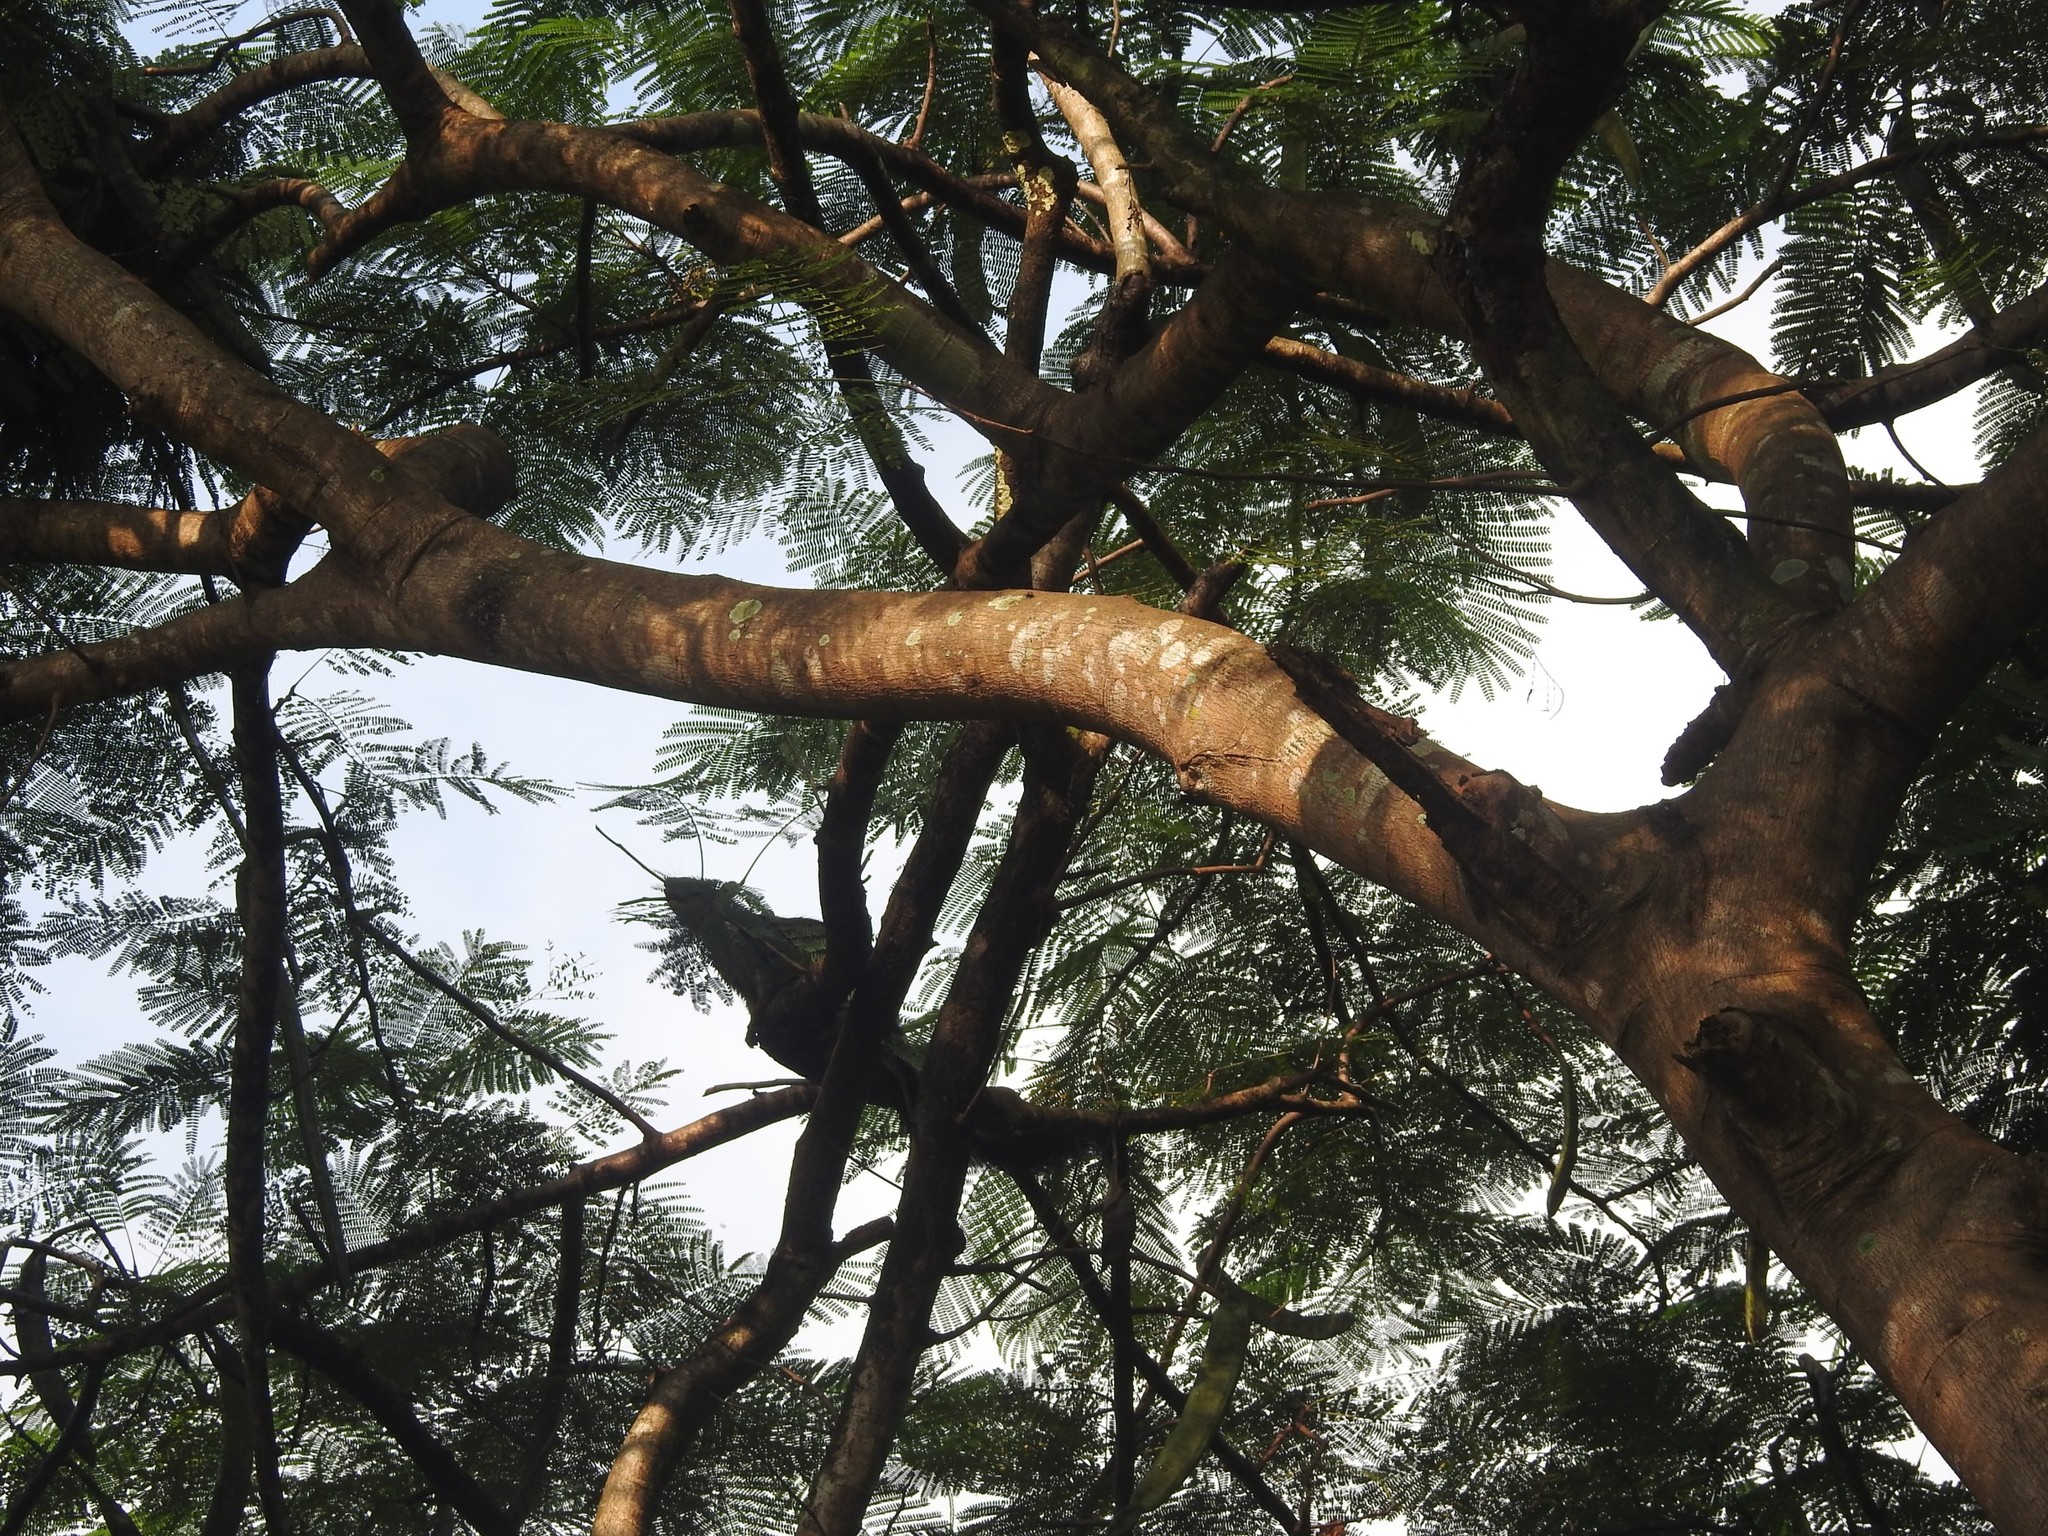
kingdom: Plantae
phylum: Tracheophyta
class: Magnoliopsida
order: Fabales
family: Fabaceae
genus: Delonix
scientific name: Delonix regia
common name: Royal poinciana
